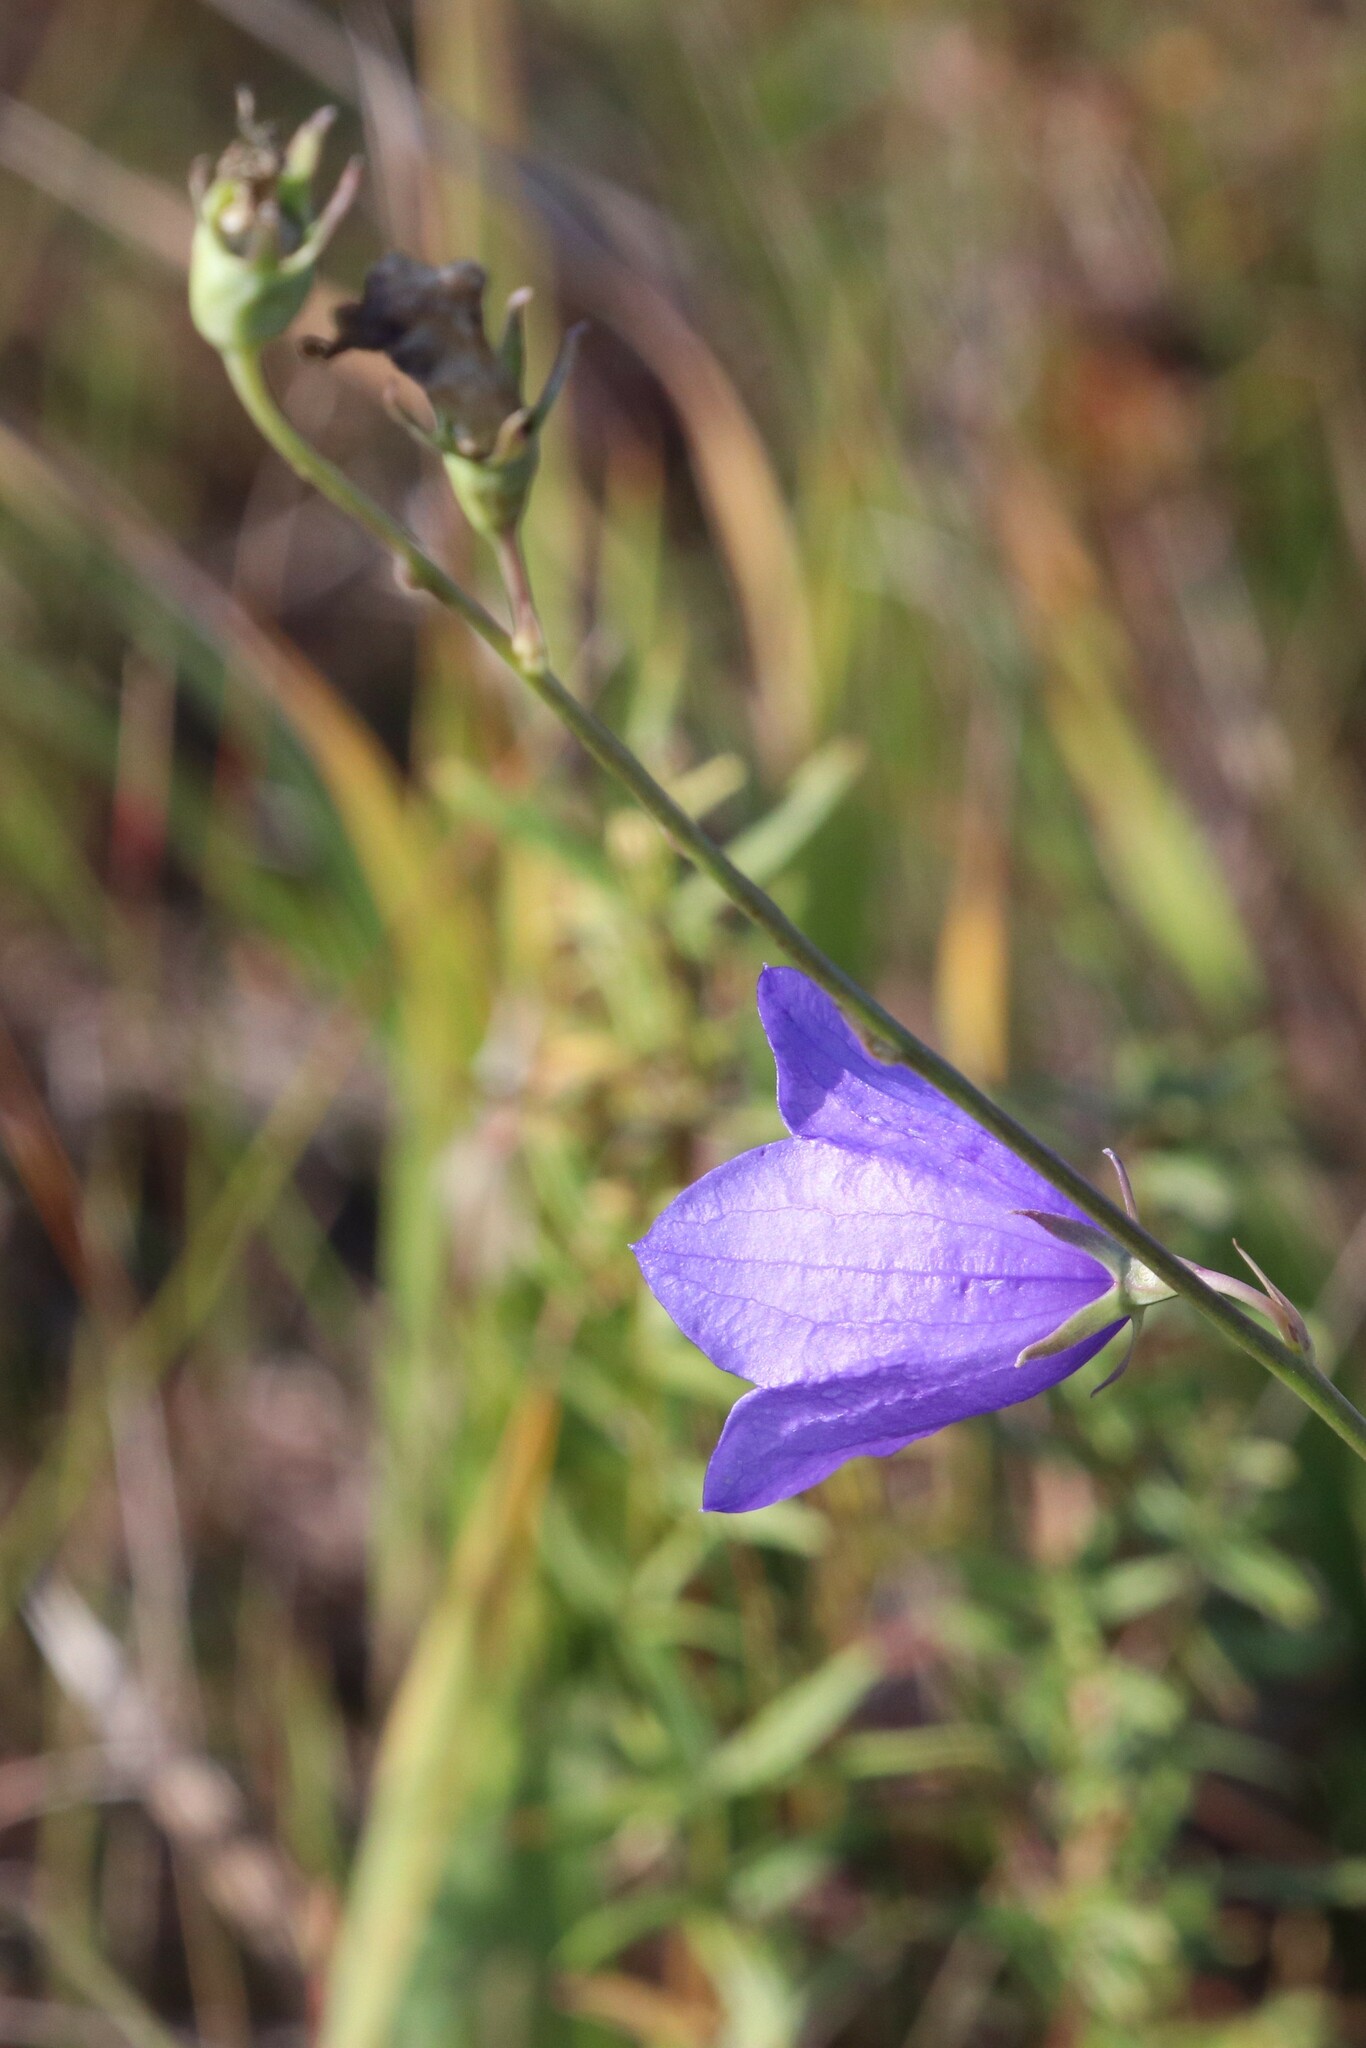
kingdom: Plantae
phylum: Tracheophyta
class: Magnoliopsida
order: Asterales
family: Campanulaceae
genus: Campanula
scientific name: Campanula persicifolia
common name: Peach-leaved bellflower
